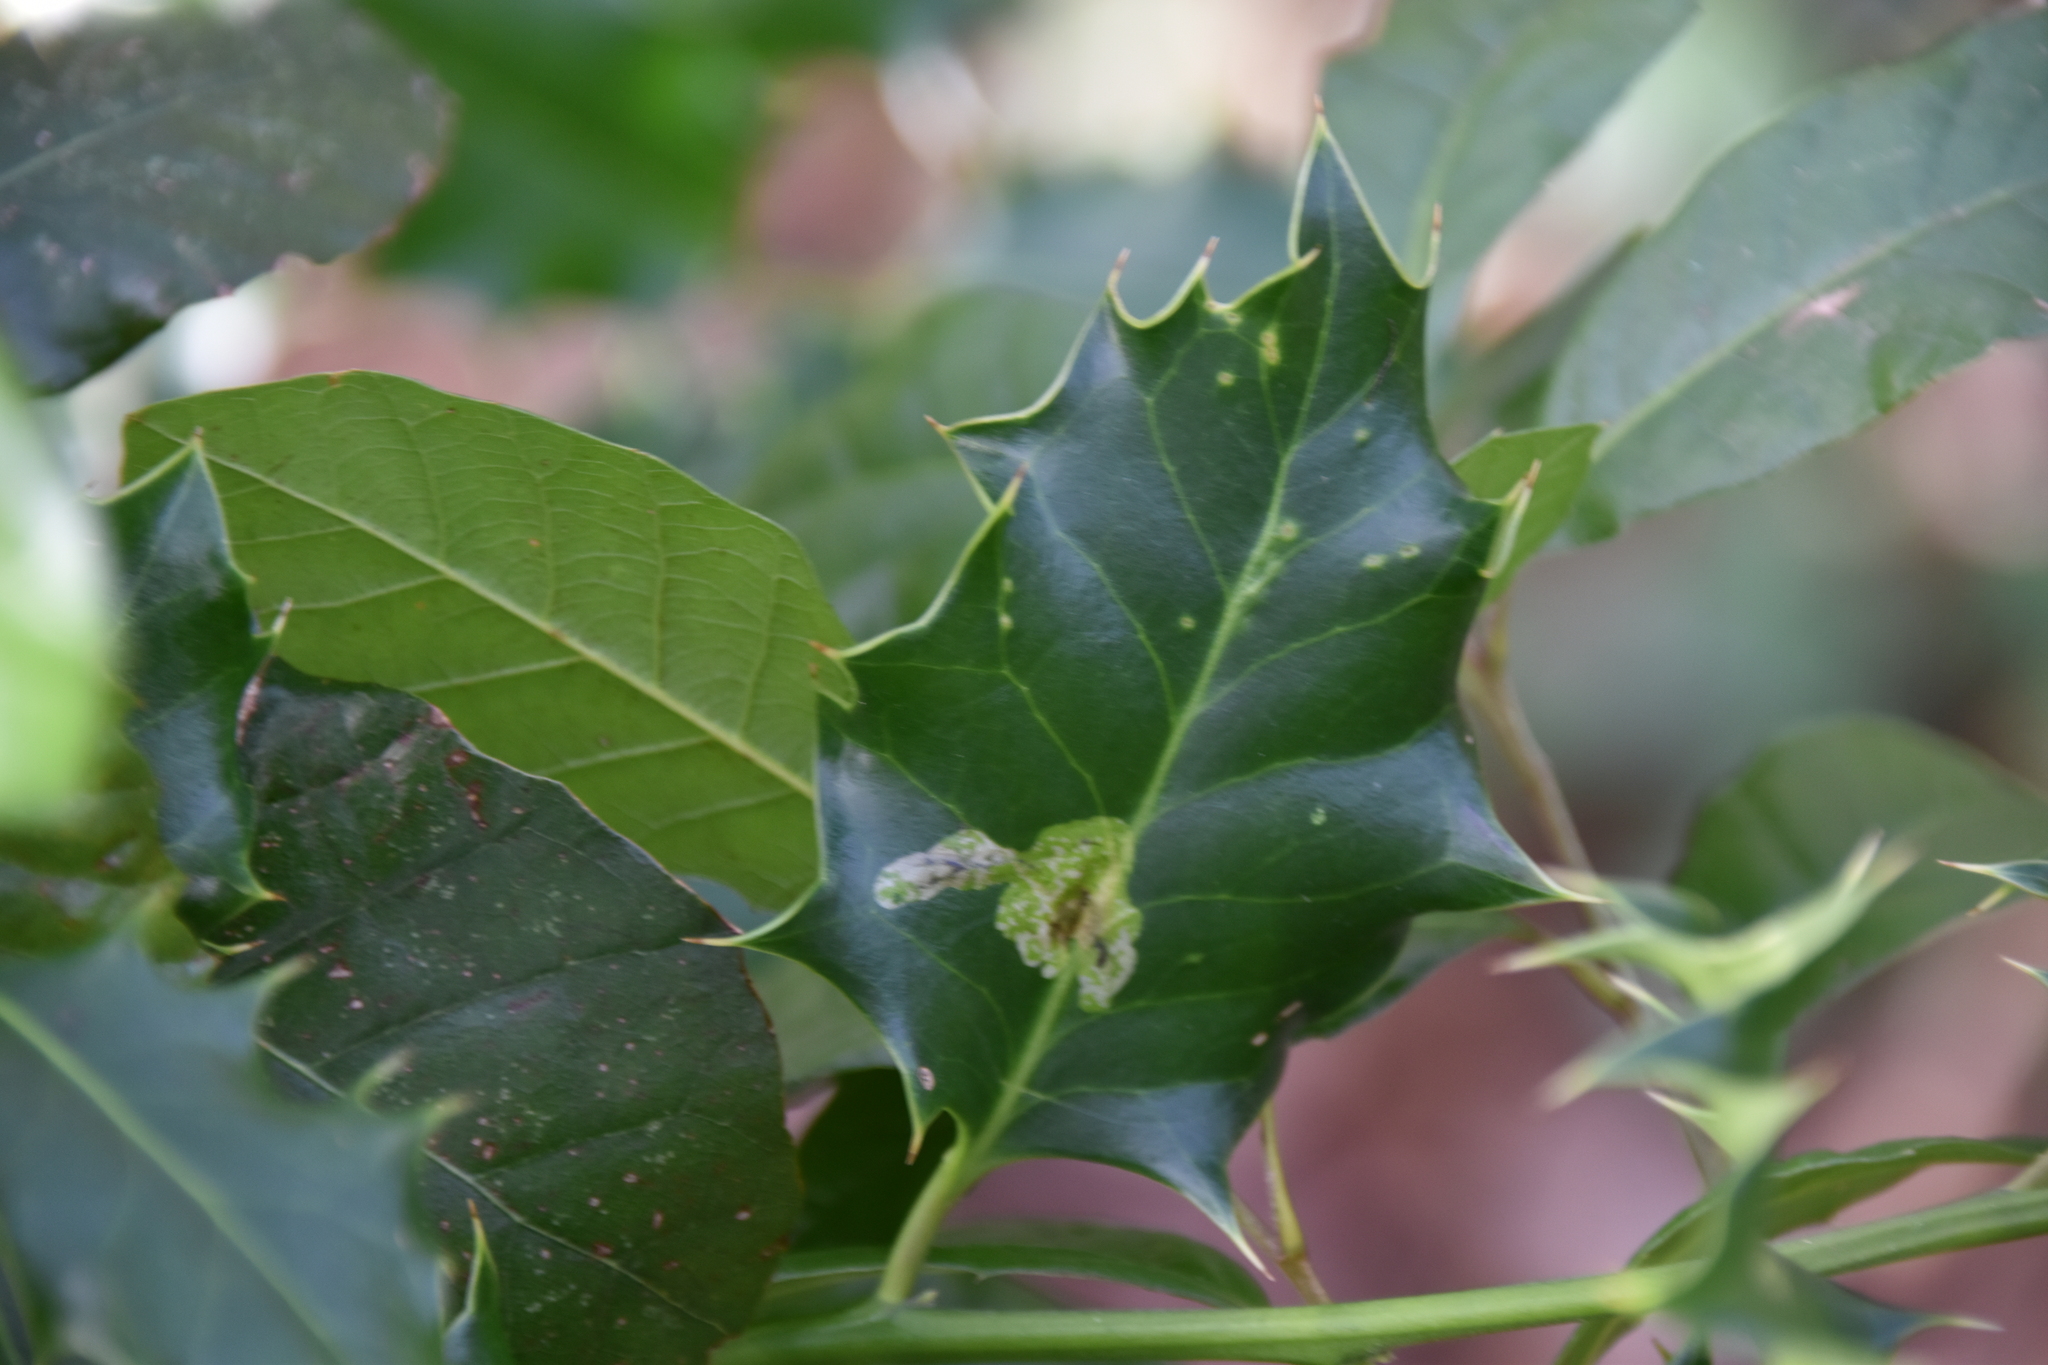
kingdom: Animalia
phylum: Arthropoda
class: Insecta
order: Diptera
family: Agromyzidae
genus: Phytomyza
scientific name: Phytomyza ilicis
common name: Holly leafminer
